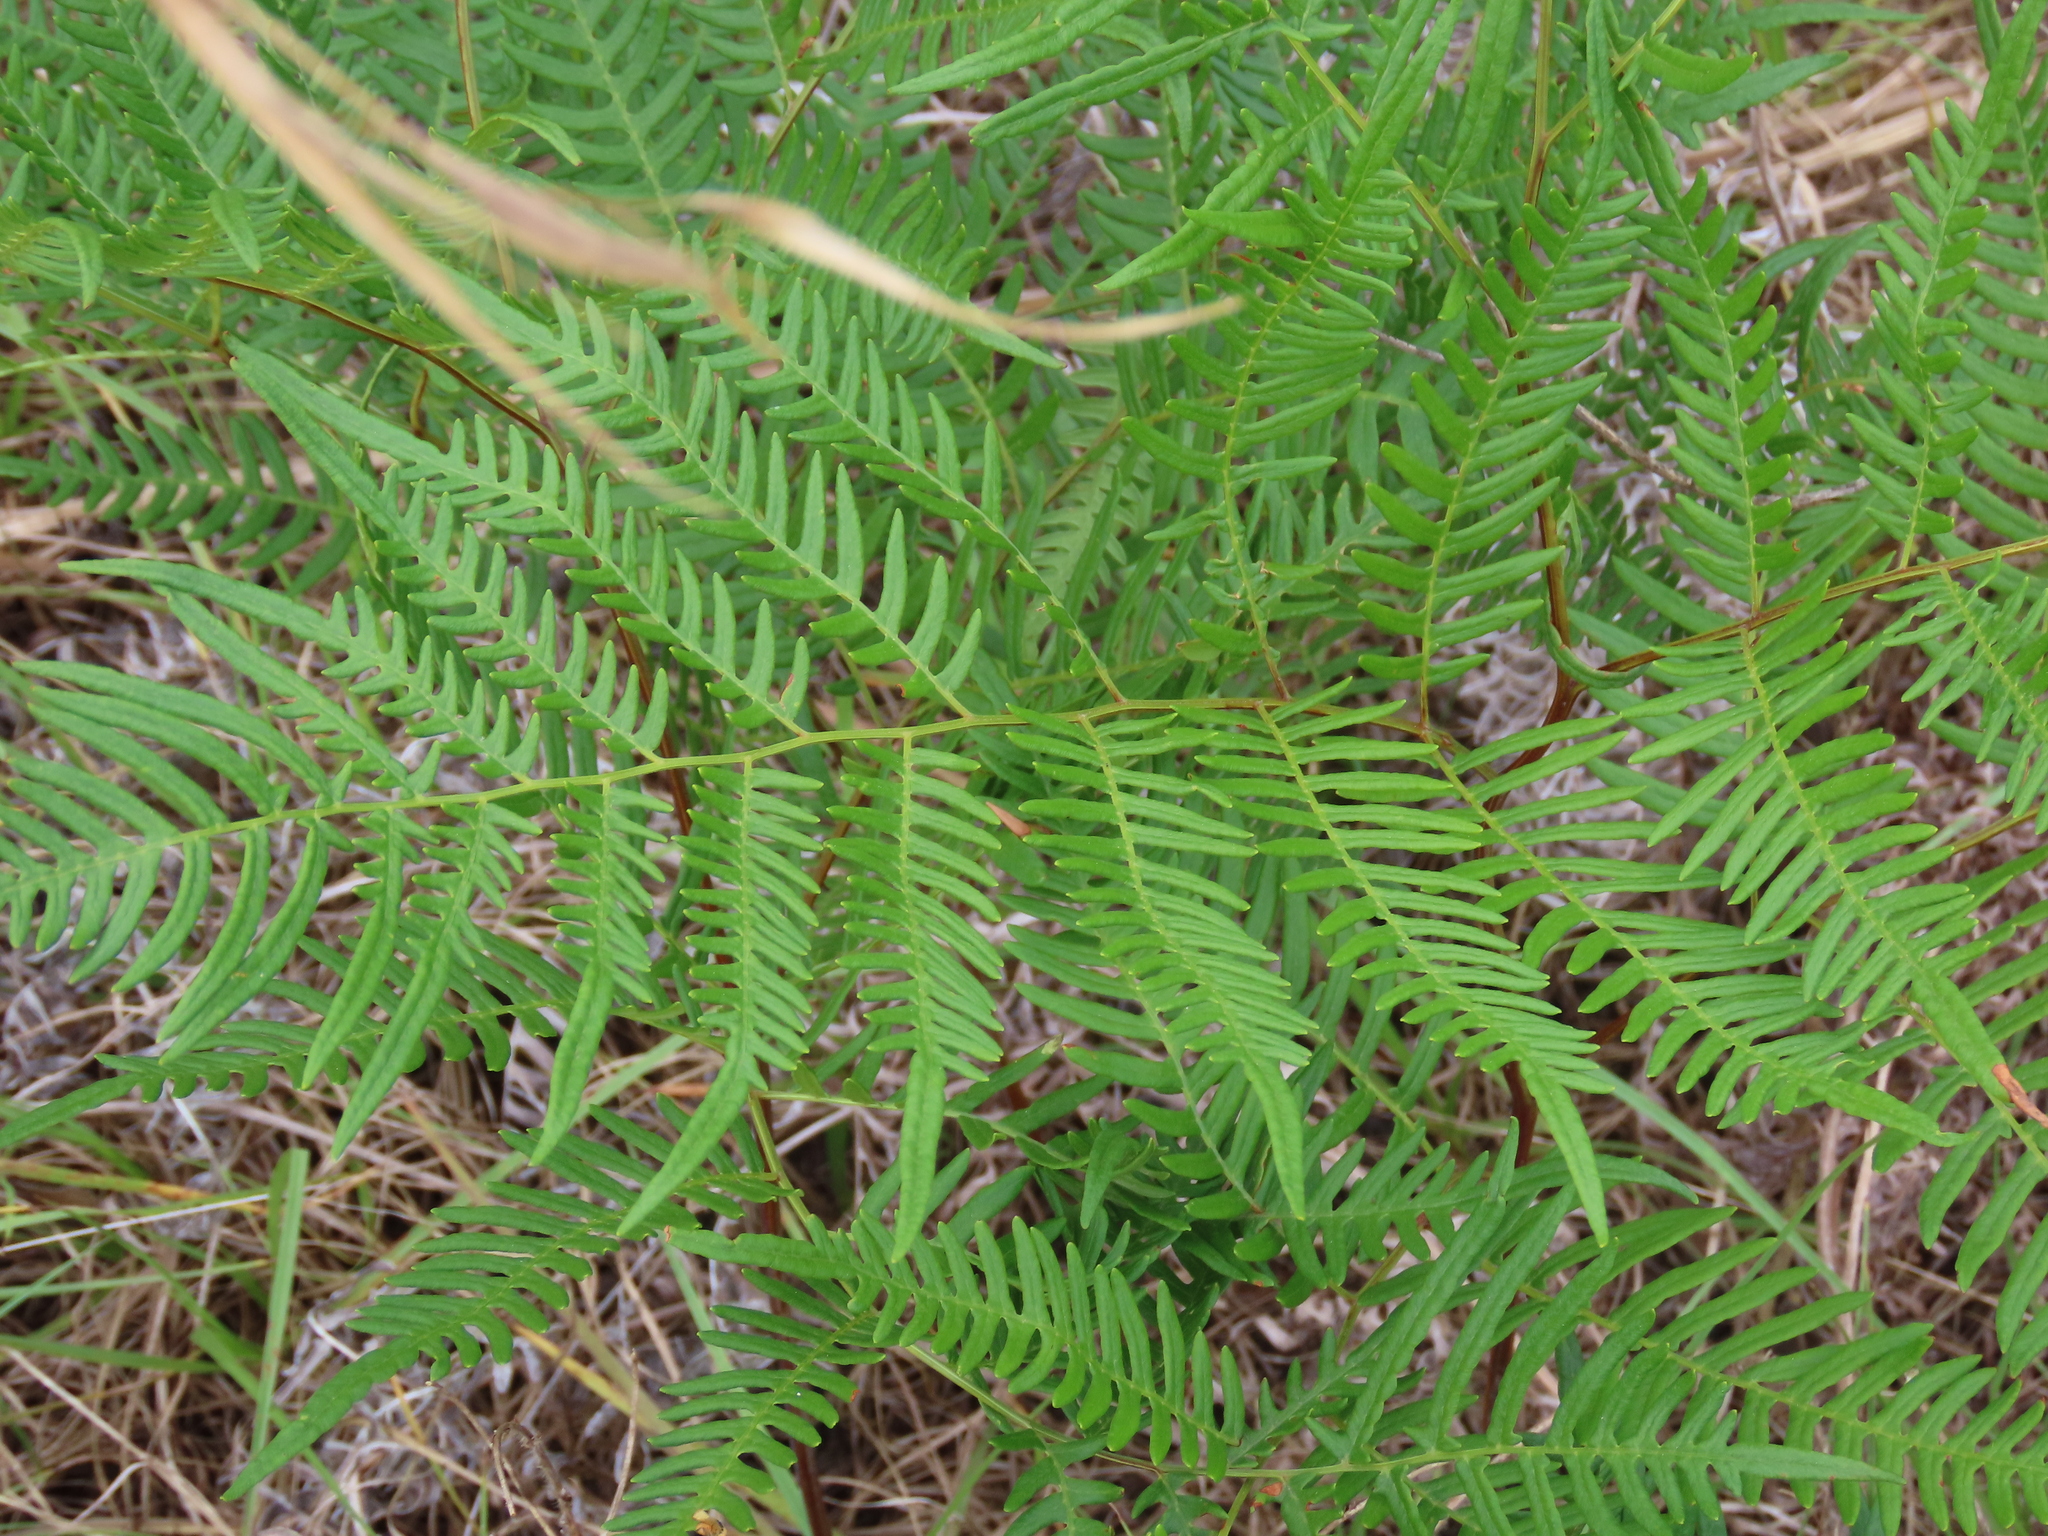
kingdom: Plantae
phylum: Tracheophyta
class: Polypodiopsida
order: Polypodiales
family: Dennstaedtiaceae
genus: Pteridium
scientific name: Pteridium
